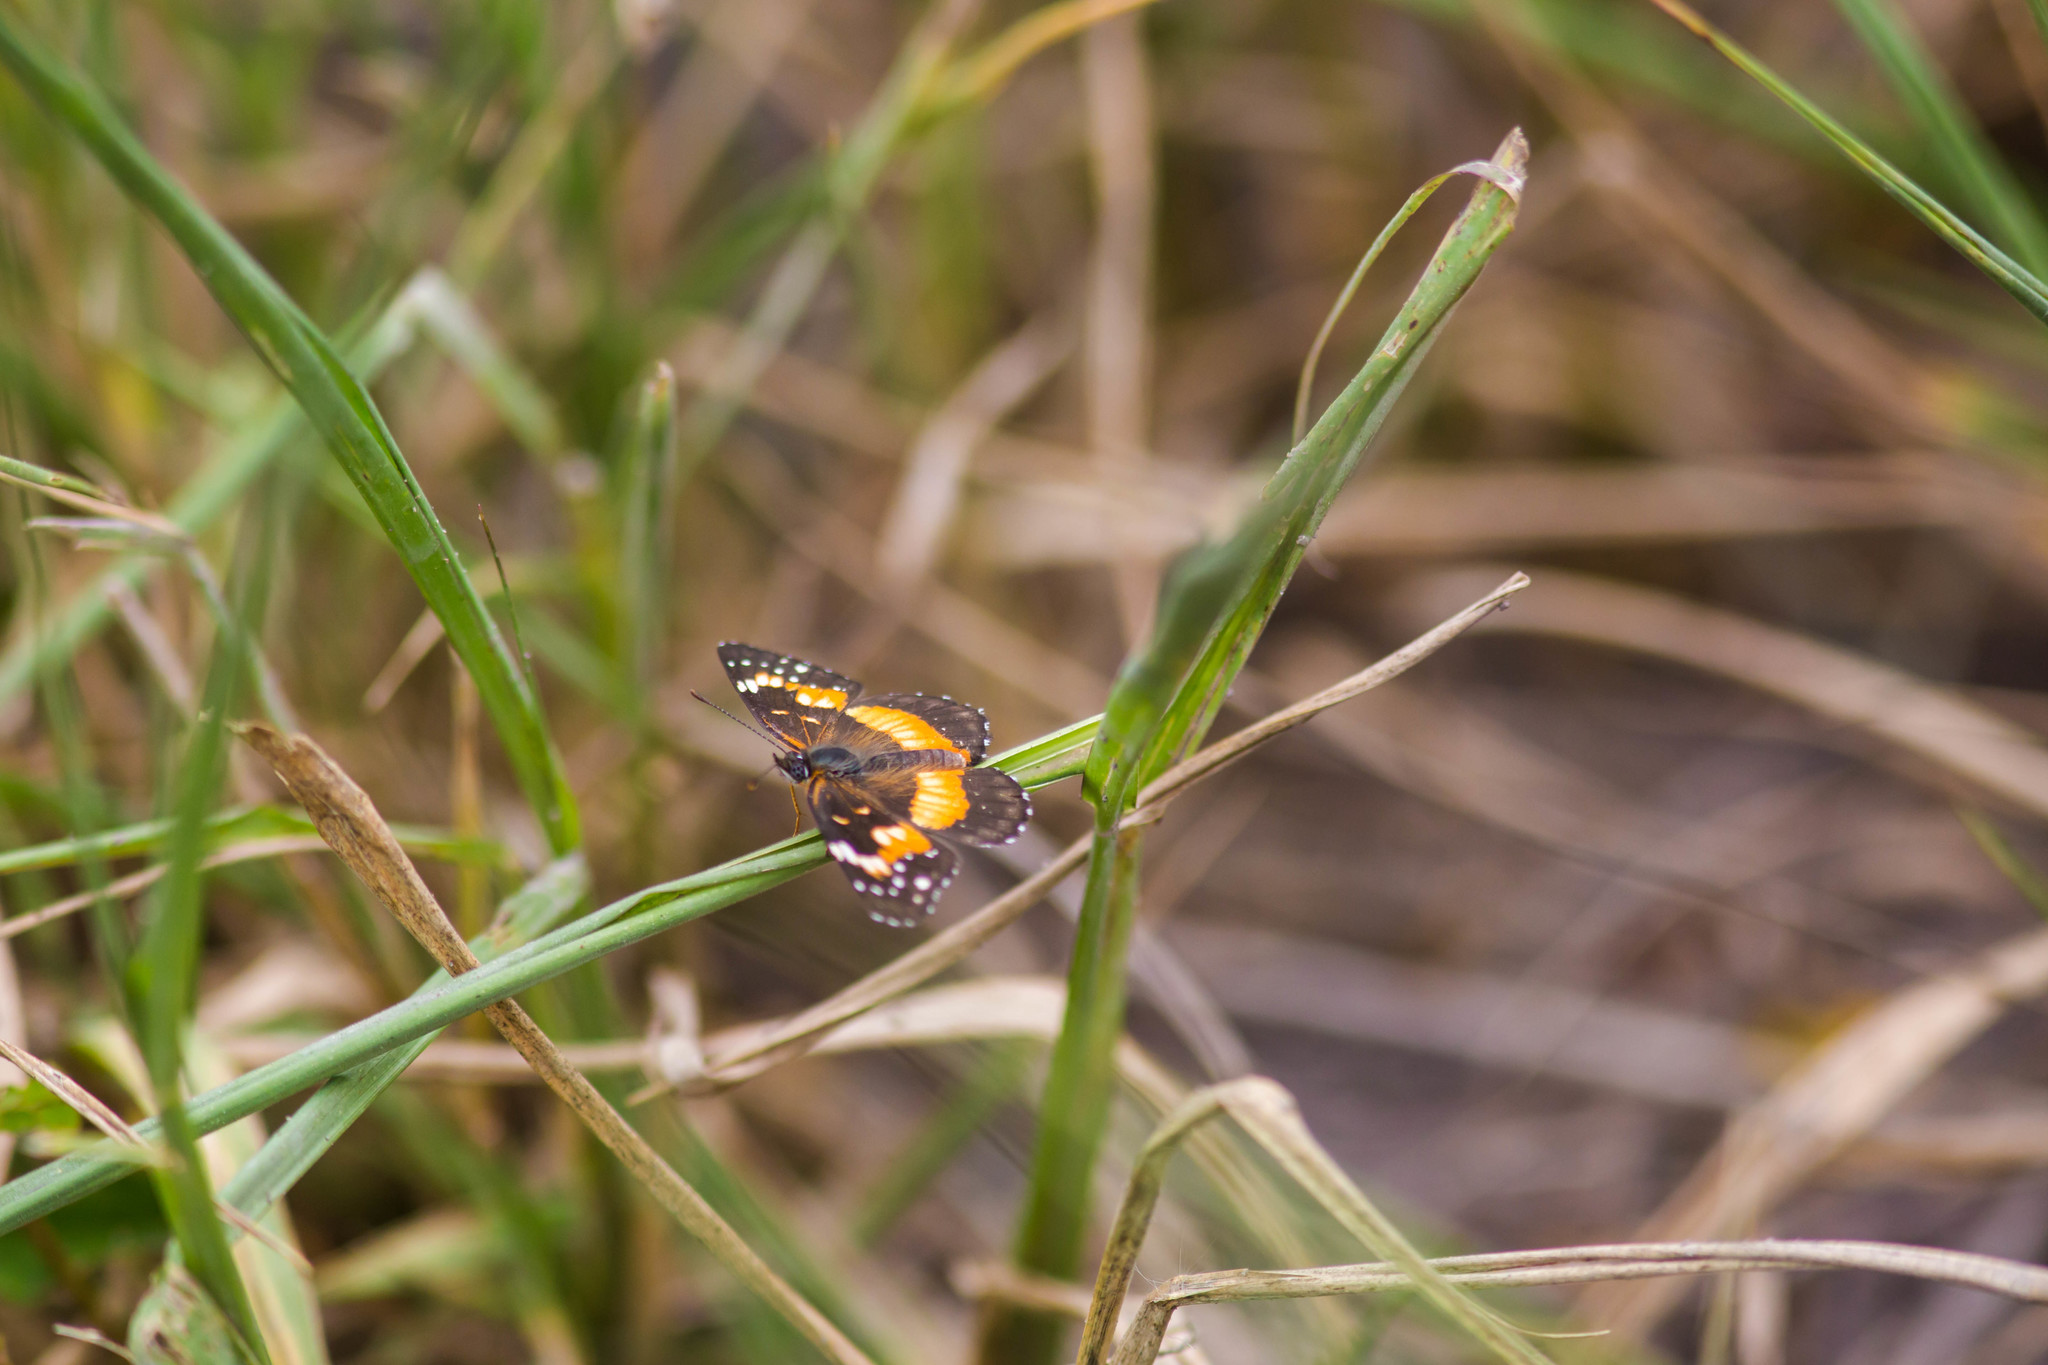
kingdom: Animalia
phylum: Arthropoda
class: Insecta
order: Lepidoptera
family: Nymphalidae
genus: Chlosyne
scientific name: Chlosyne lacinia
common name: Bordered patch
